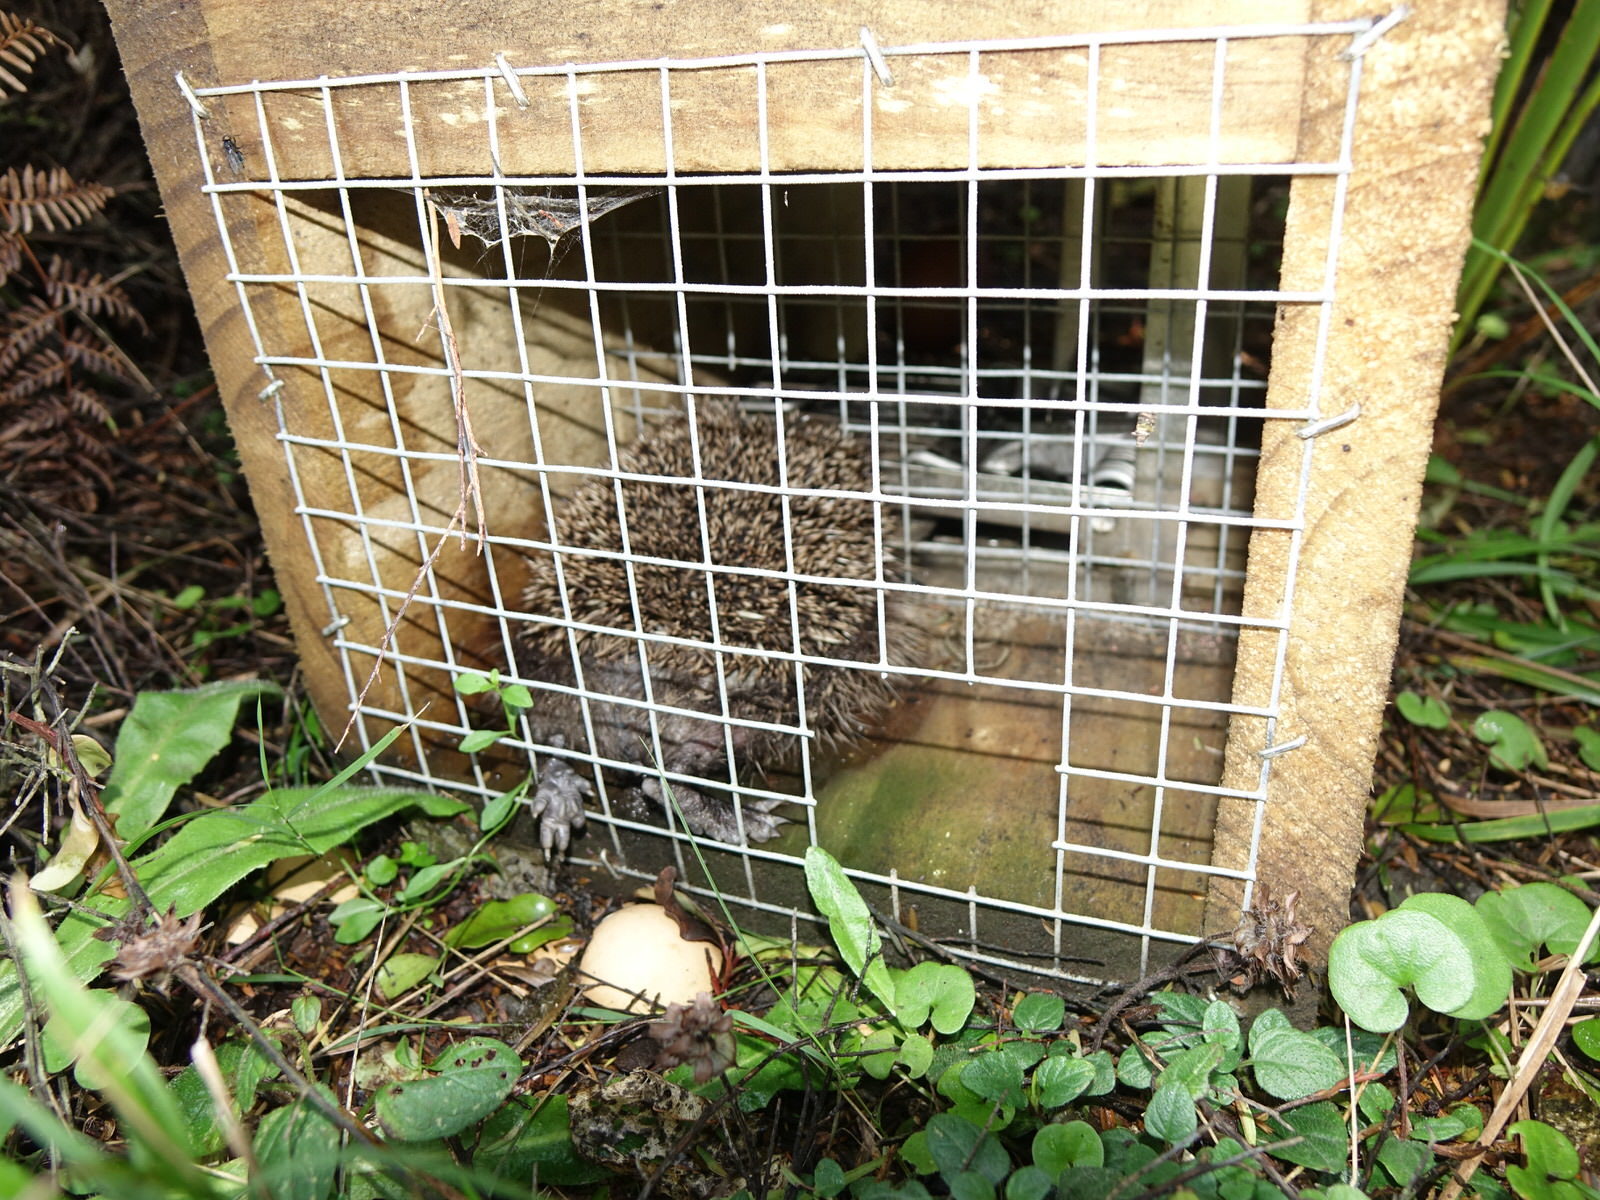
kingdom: Animalia
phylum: Chordata
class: Mammalia
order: Erinaceomorpha
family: Erinaceidae
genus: Erinaceus
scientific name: Erinaceus europaeus
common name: West european hedgehog
